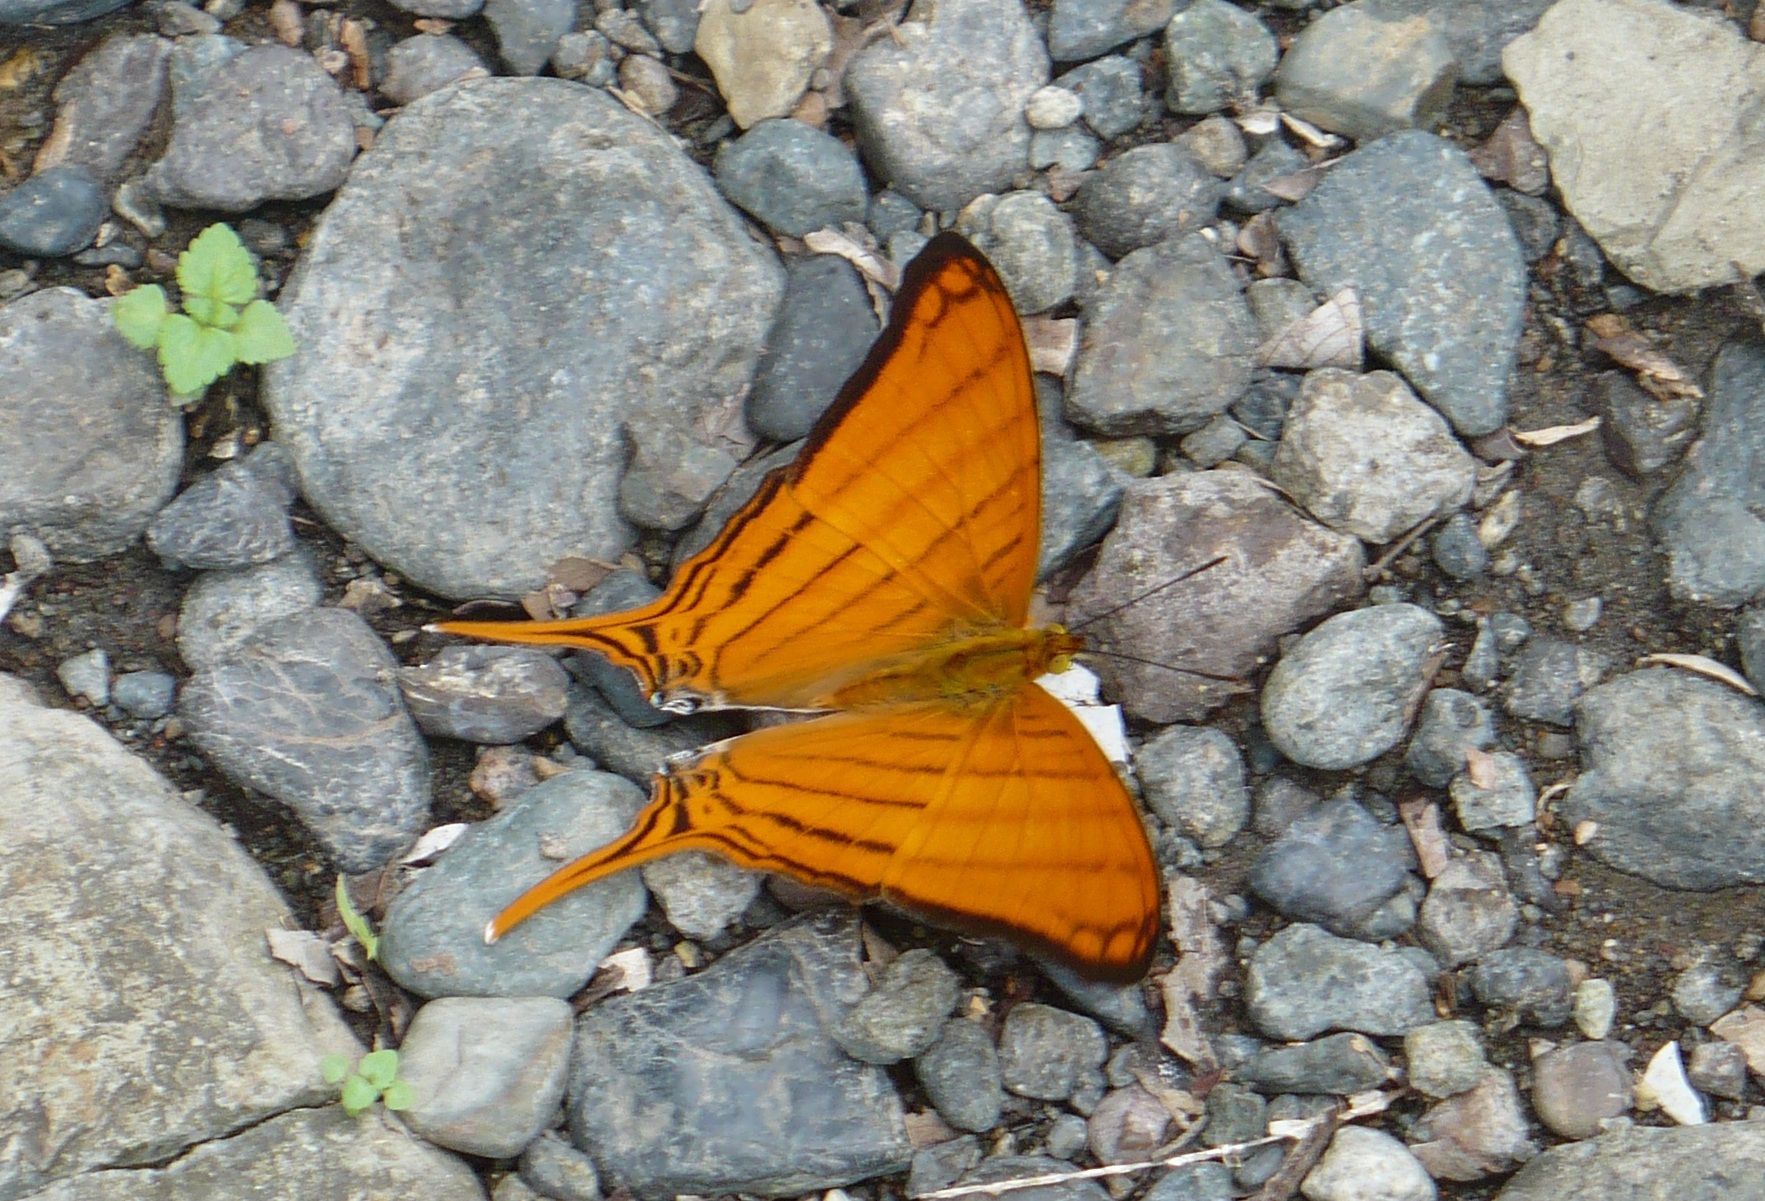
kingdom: Animalia
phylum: Arthropoda
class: Insecta
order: Lepidoptera
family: Nymphalidae
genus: Marpesia
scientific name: Marpesia berania
